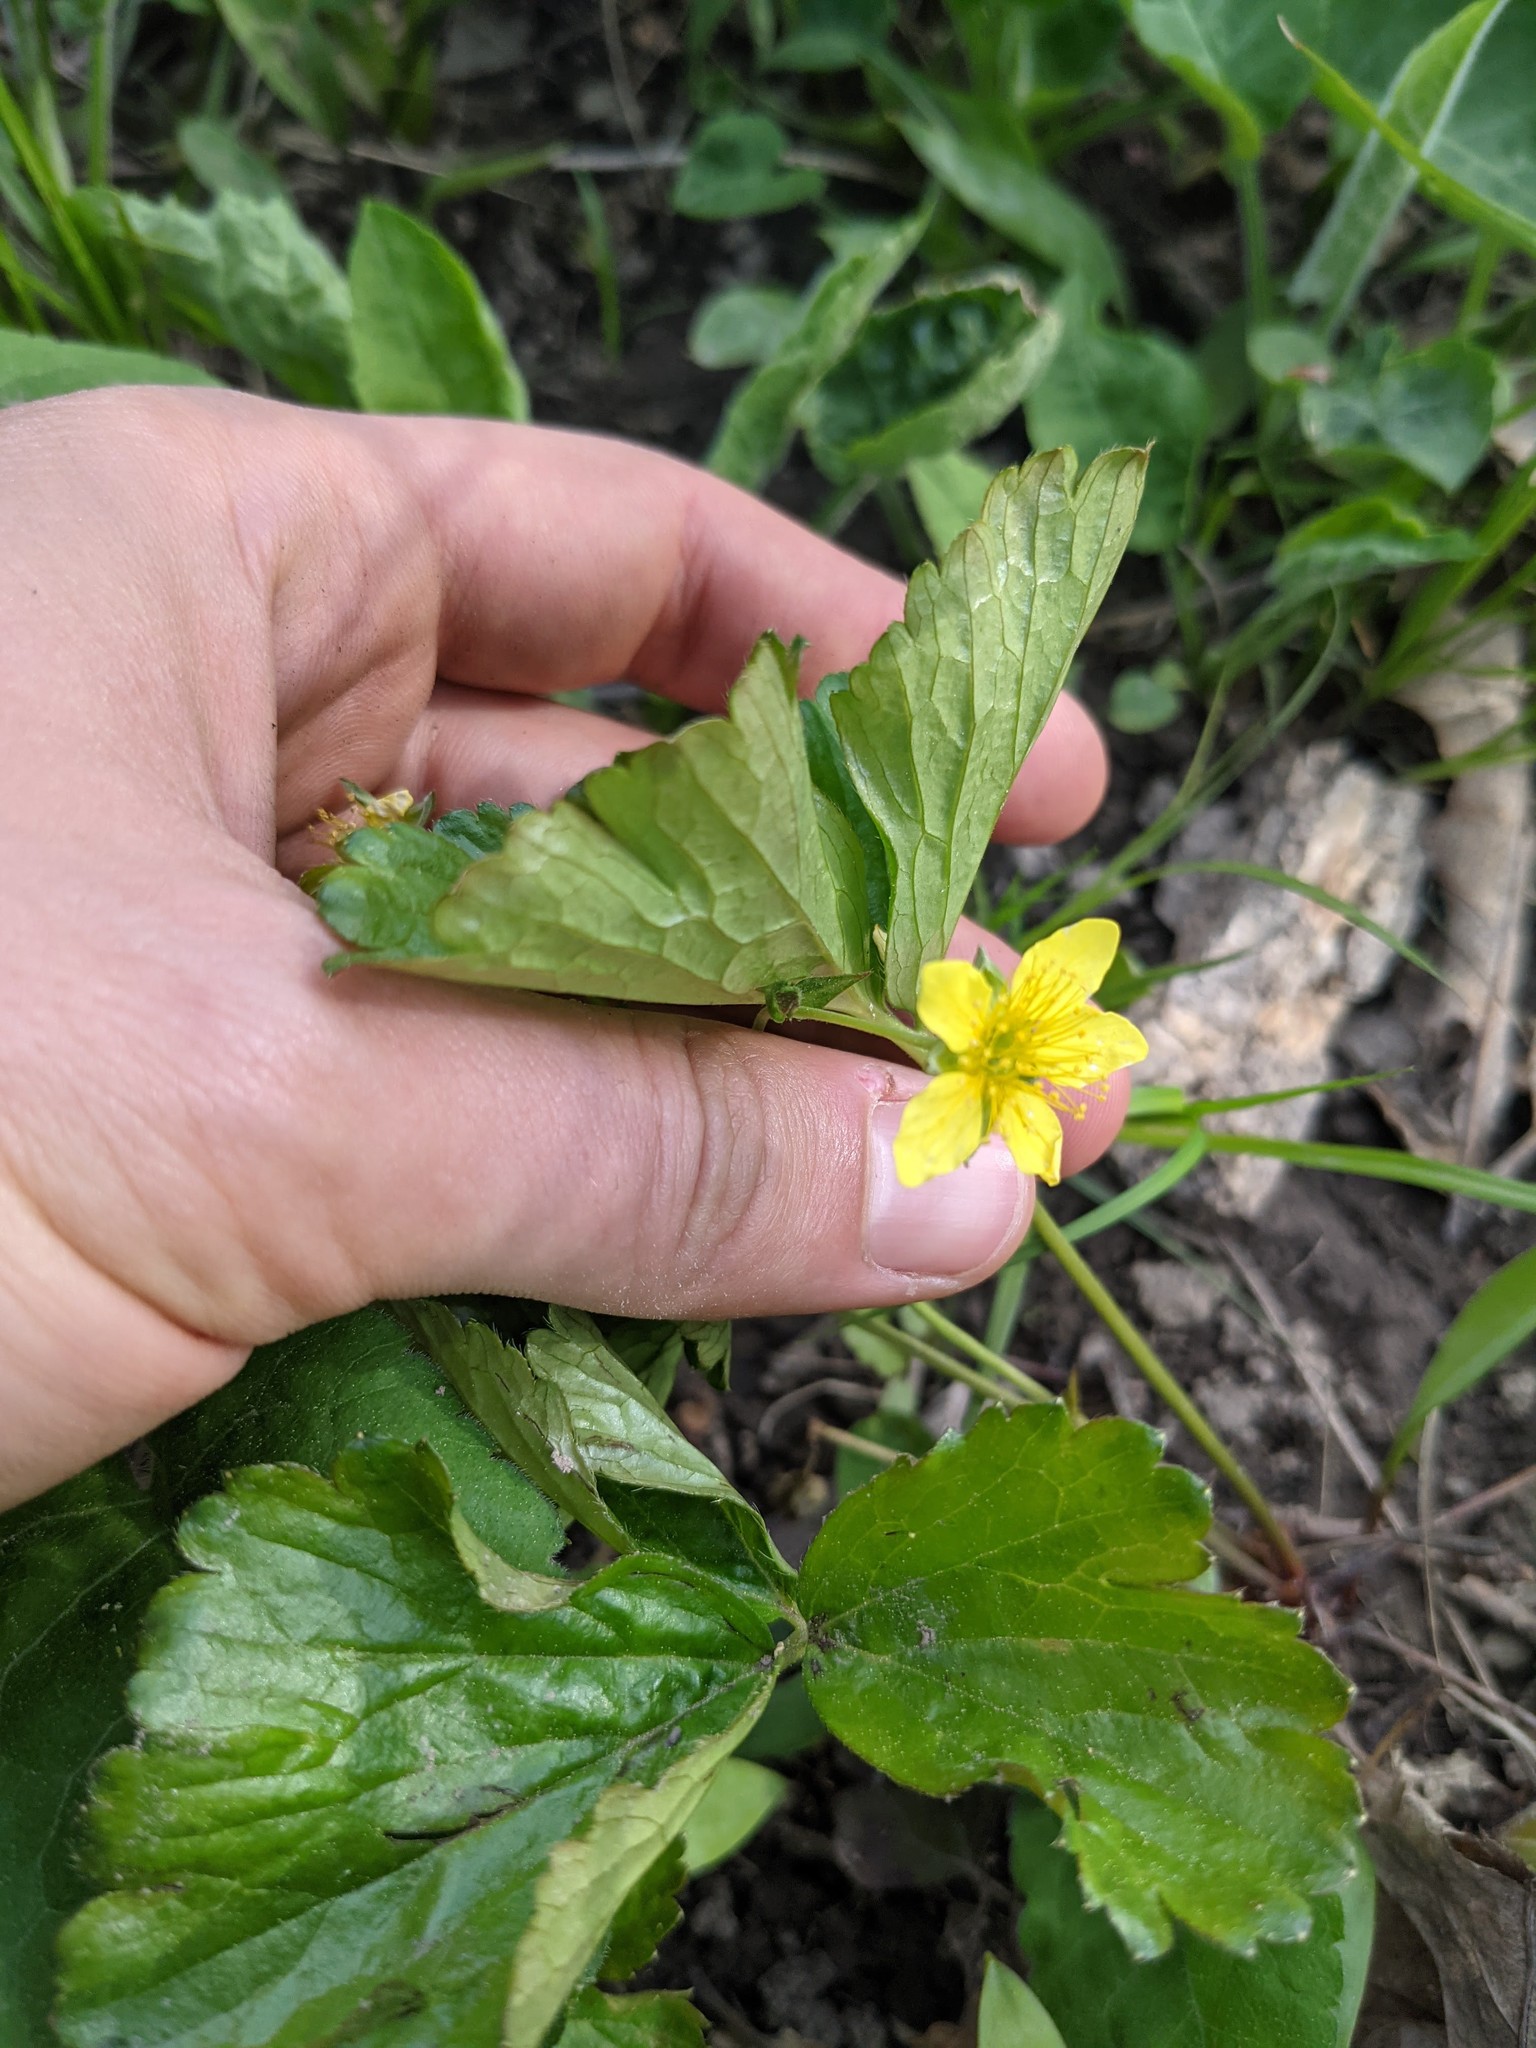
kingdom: Plantae
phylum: Tracheophyta
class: Magnoliopsida
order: Rosales
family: Rosaceae
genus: Geum
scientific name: Geum fragarioides
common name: Appalachian barren strawberry
